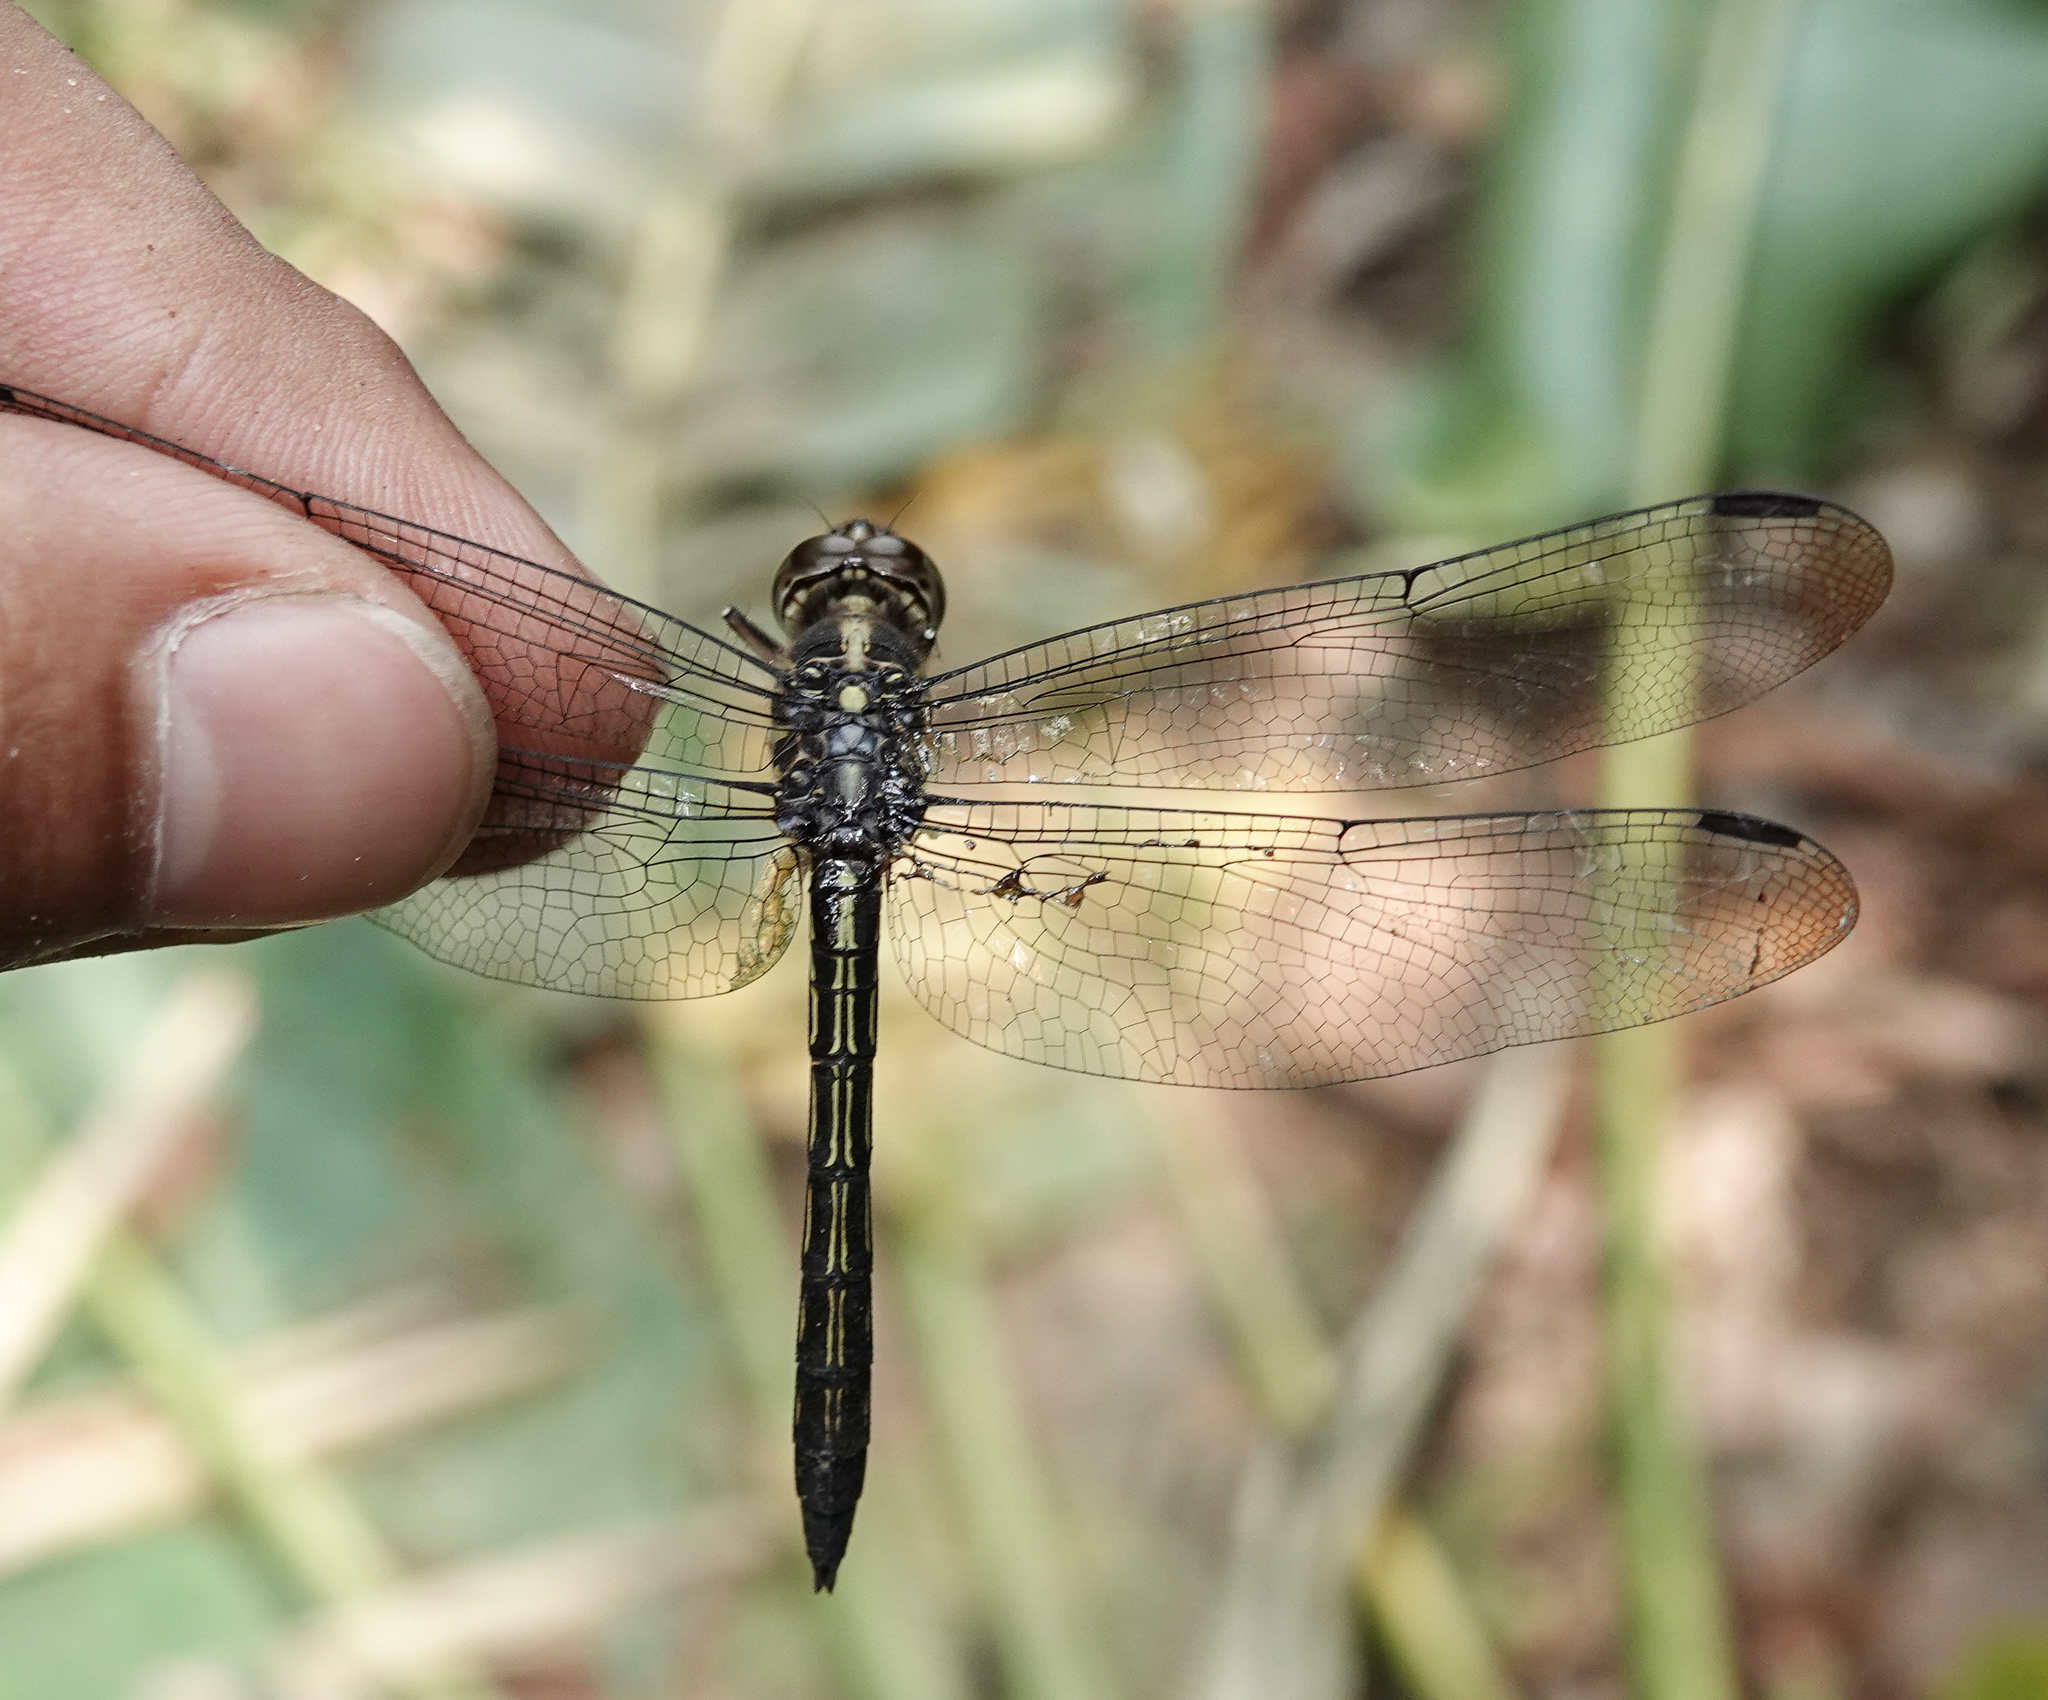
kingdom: Animalia
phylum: Arthropoda
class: Insecta
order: Odonata
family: Libellulidae
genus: Cratilla
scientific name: Cratilla lineata
